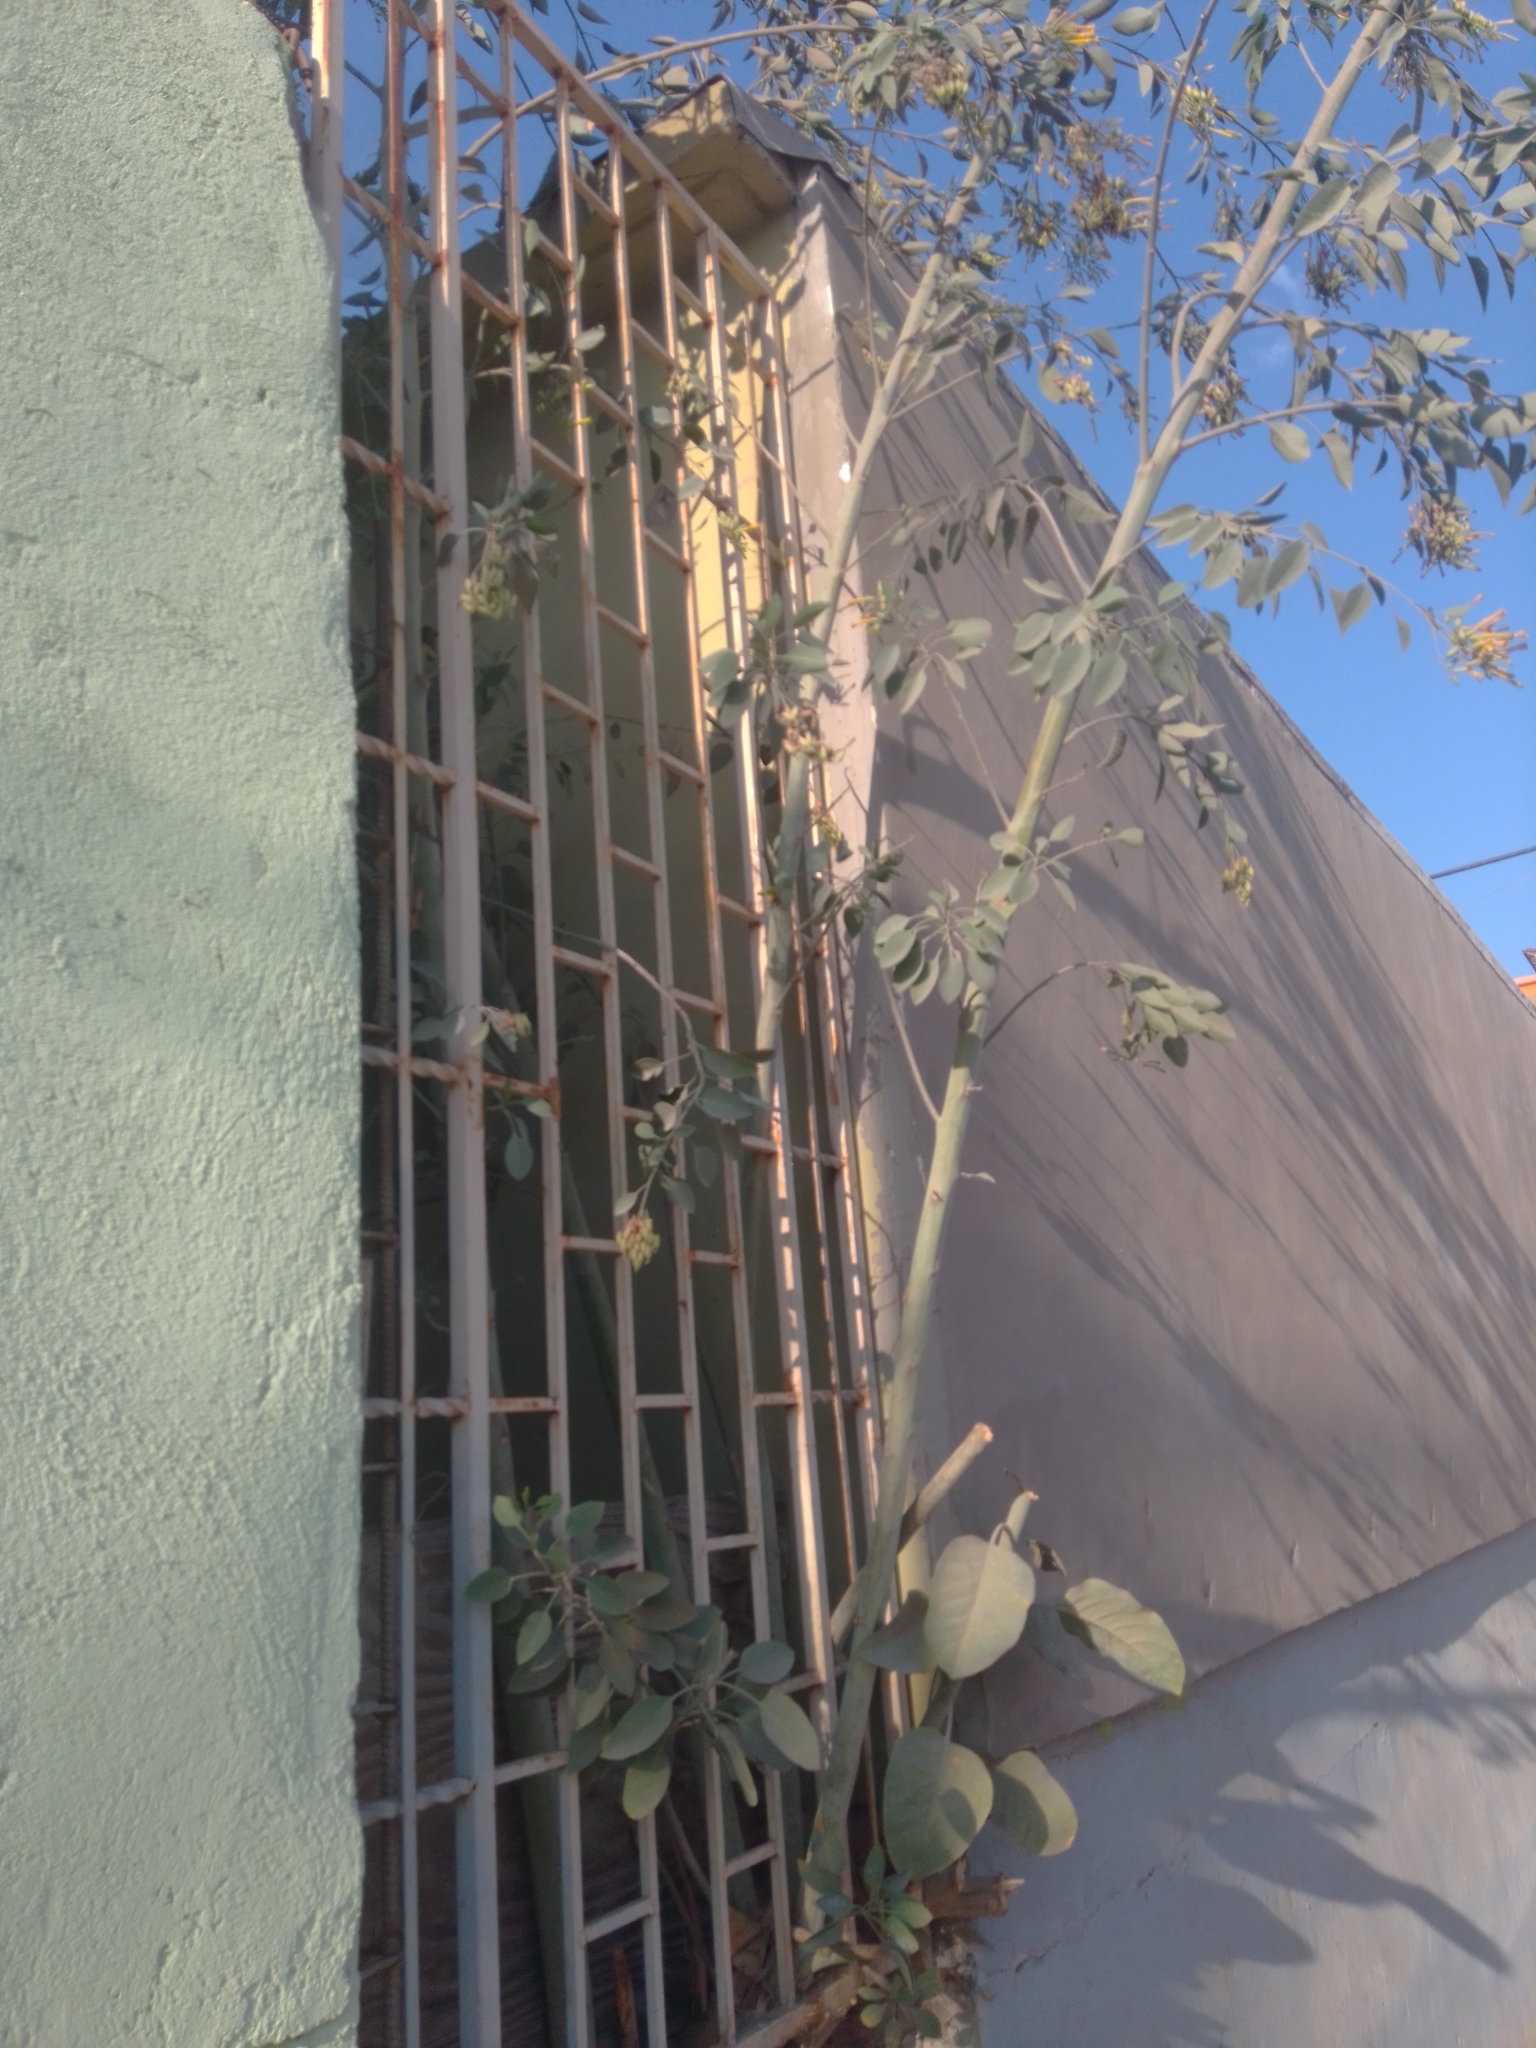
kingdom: Plantae
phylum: Tracheophyta
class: Magnoliopsida
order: Solanales
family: Solanaceae
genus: Nicotiana
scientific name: Nicotiana glauca
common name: Tree tobacco
